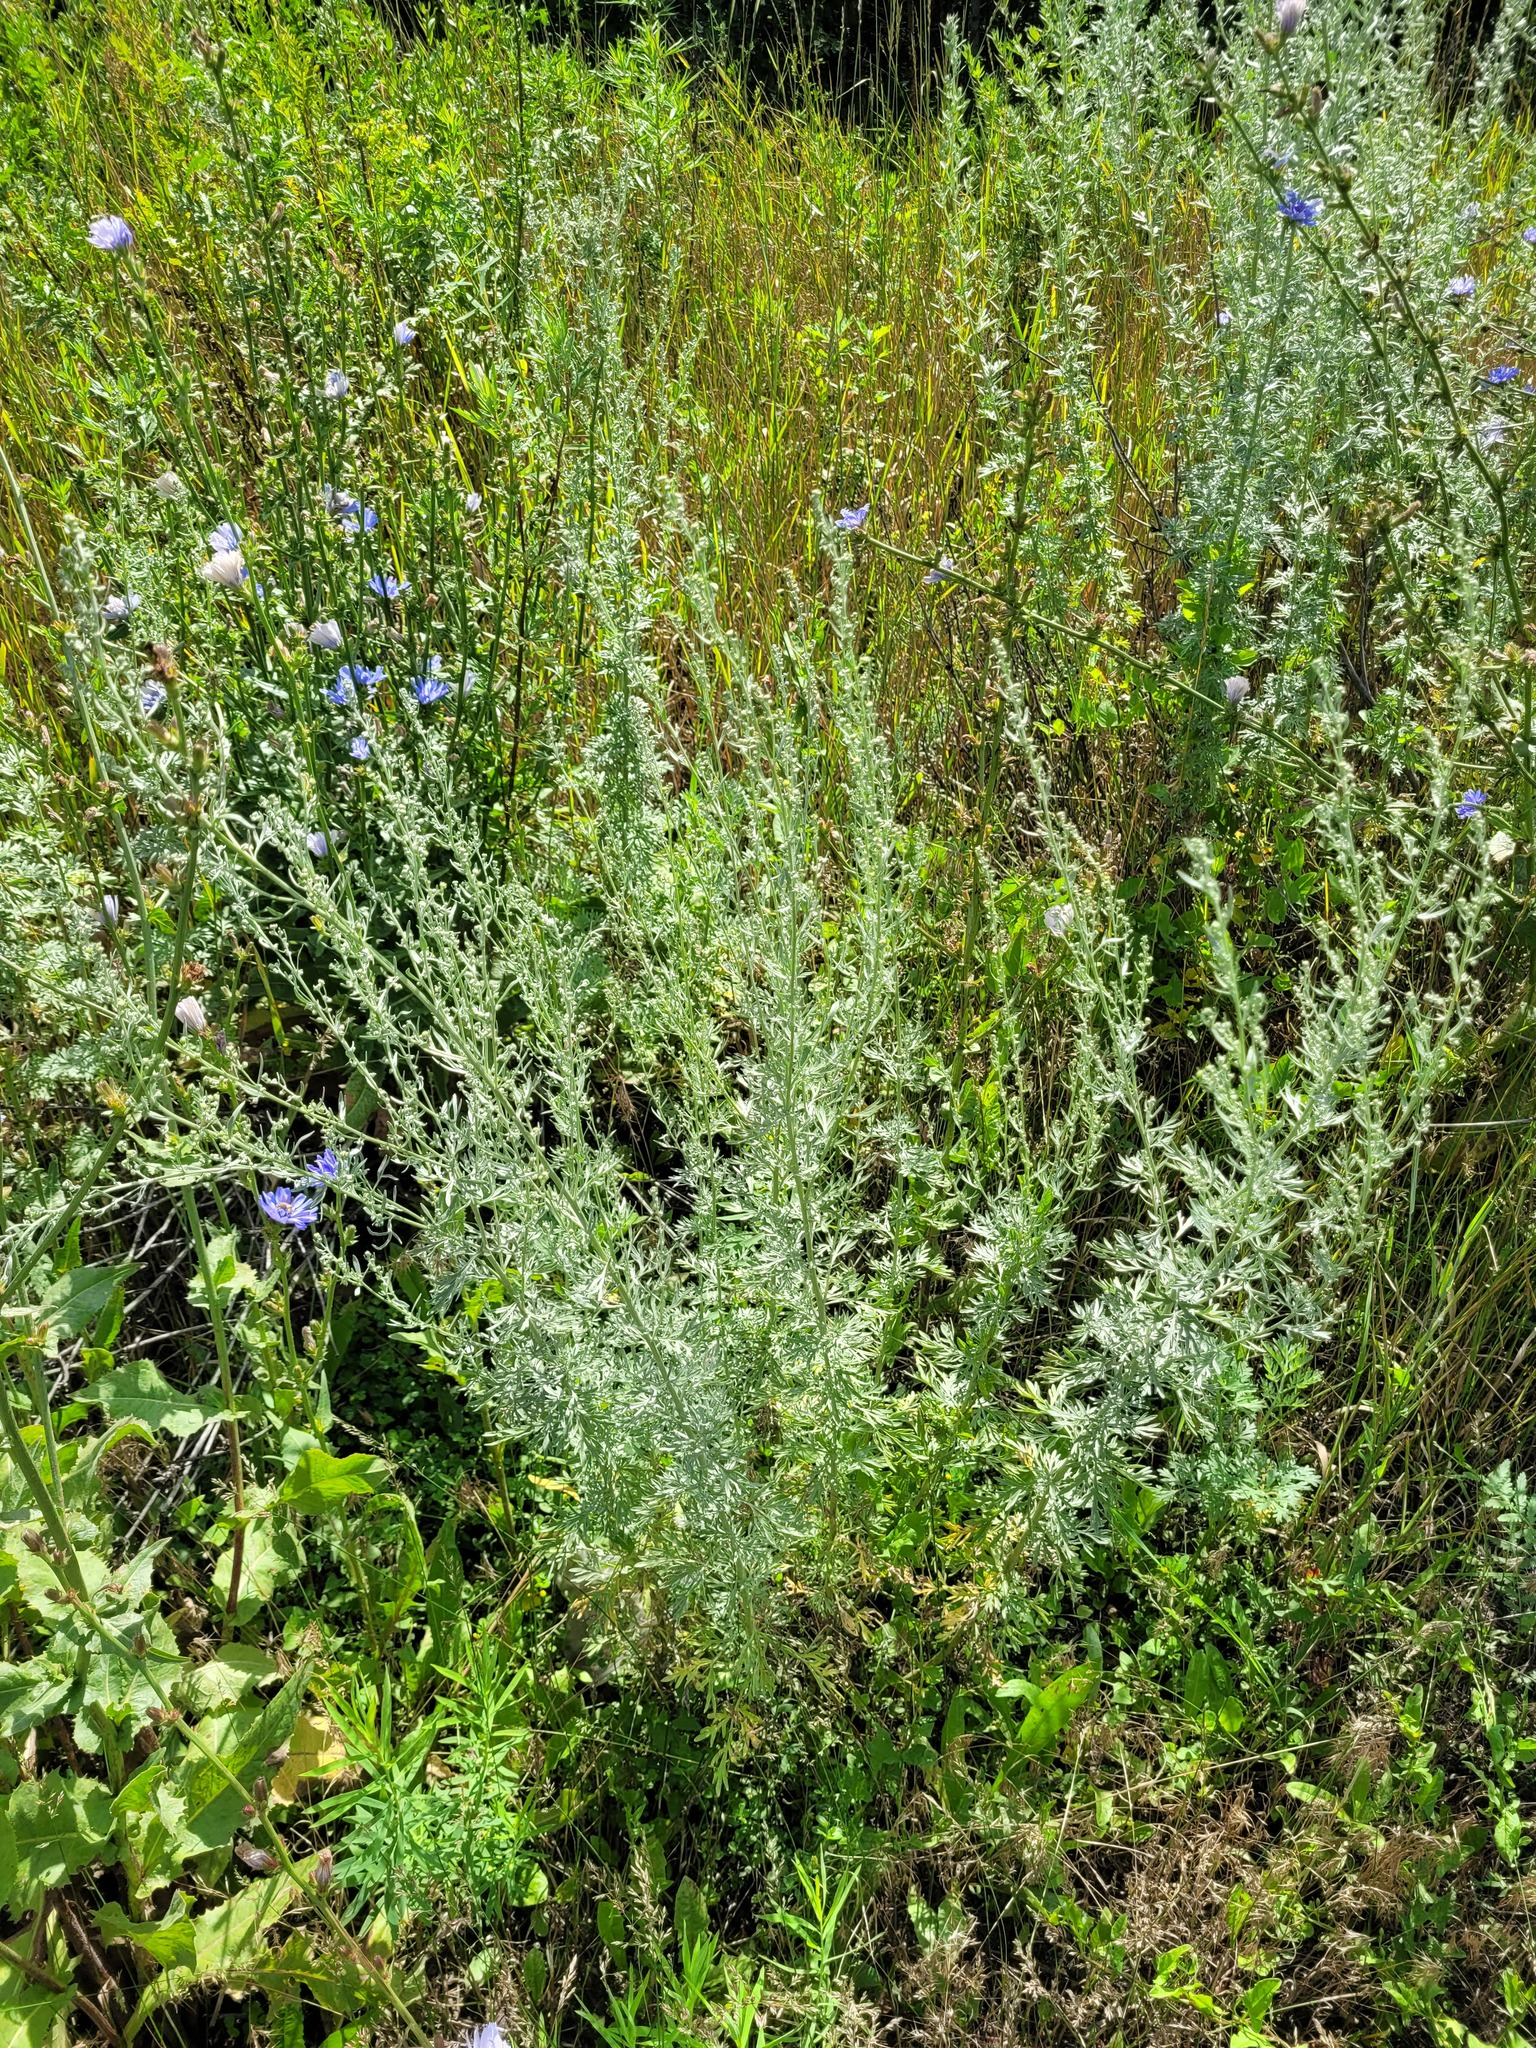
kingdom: Plantae
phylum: Tracheophyta
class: Magnoliopsida
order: Asterales
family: Asteraceae
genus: Artemisia
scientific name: Artemisia absinthium
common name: Wormwood
